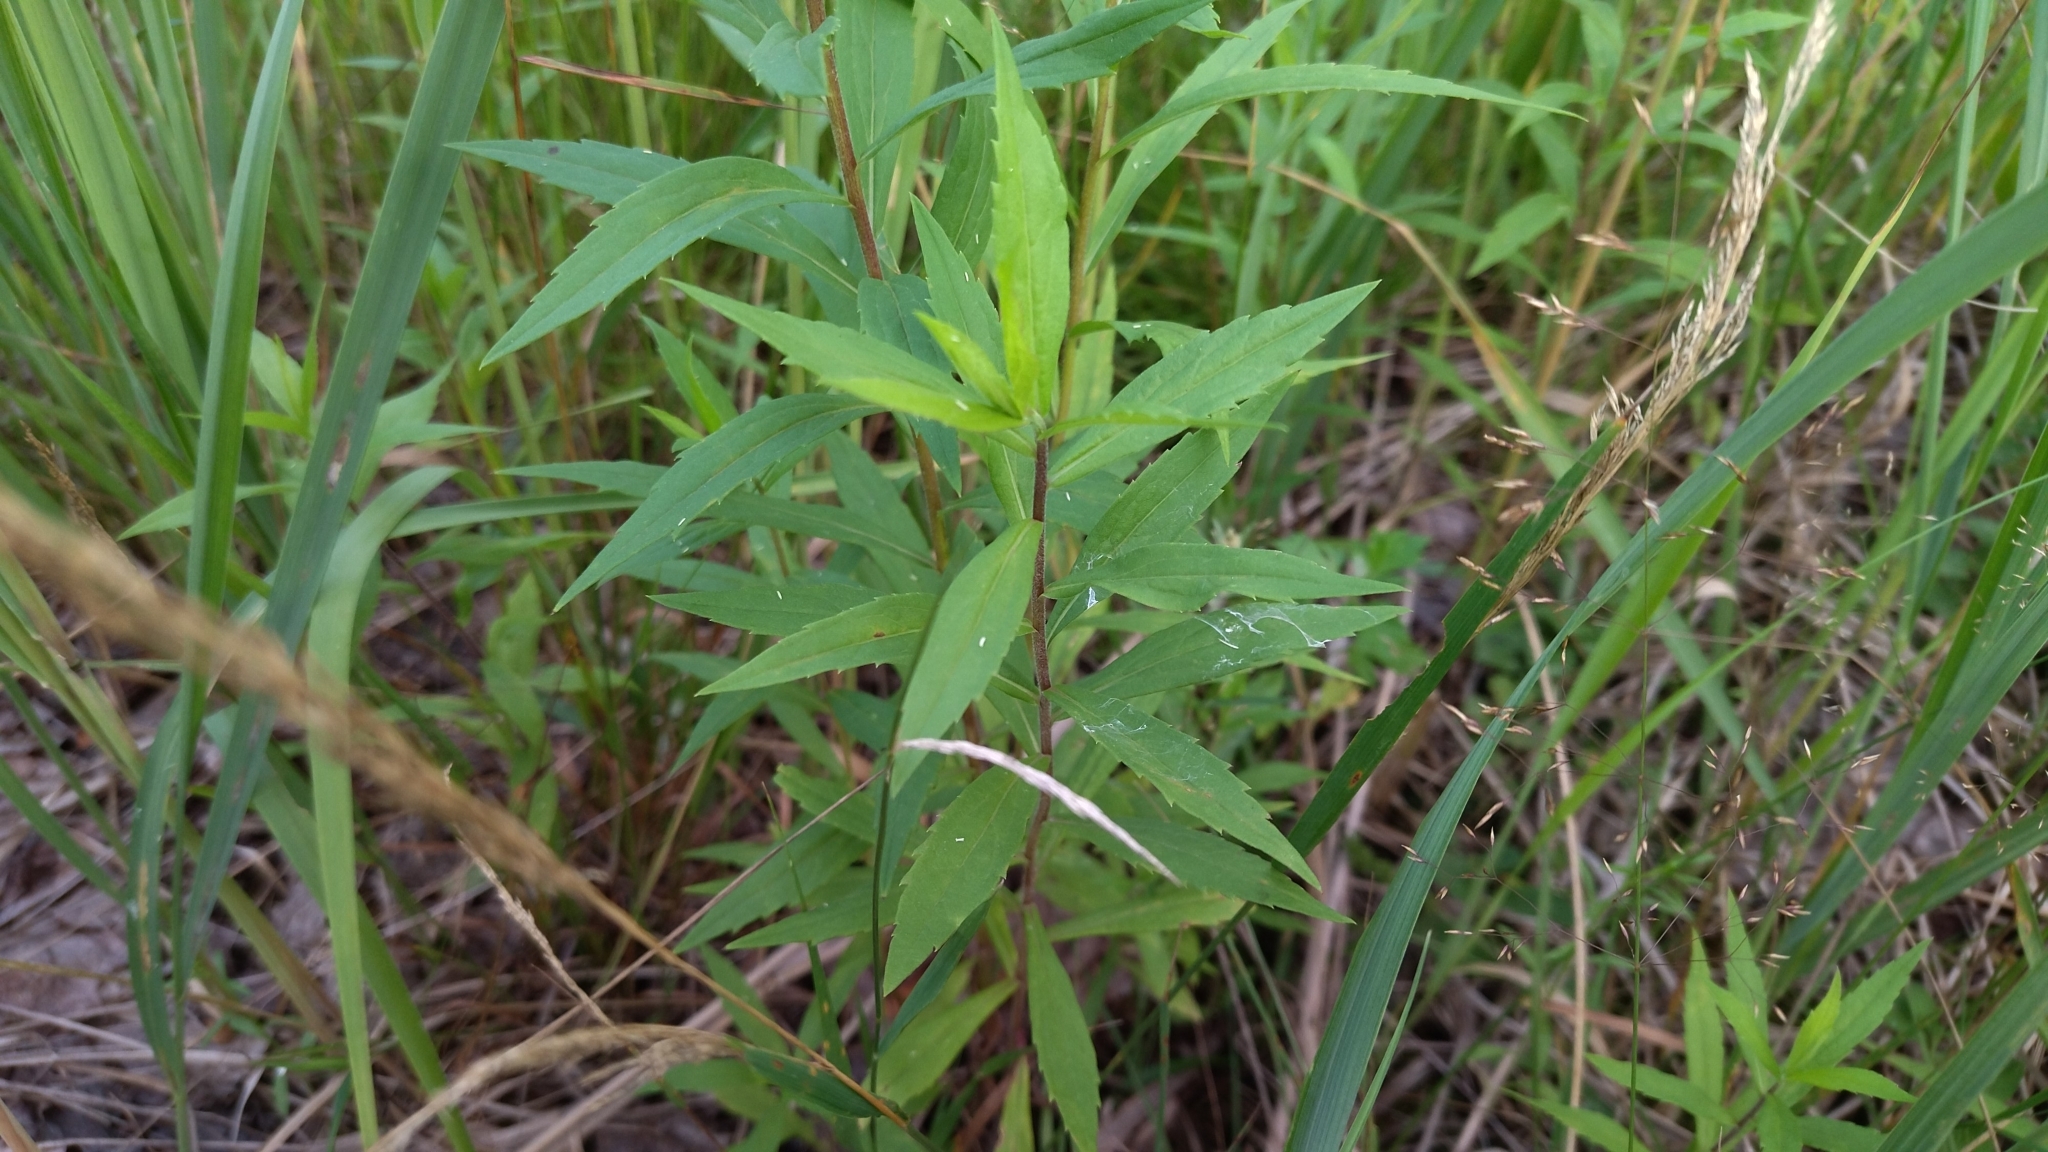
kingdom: Plantae
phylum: Tracheophyta
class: Magnoliopsida
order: Asterales
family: Asteraceae
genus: Solidago
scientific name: Solidago canadensis
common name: Canada goldenrod
